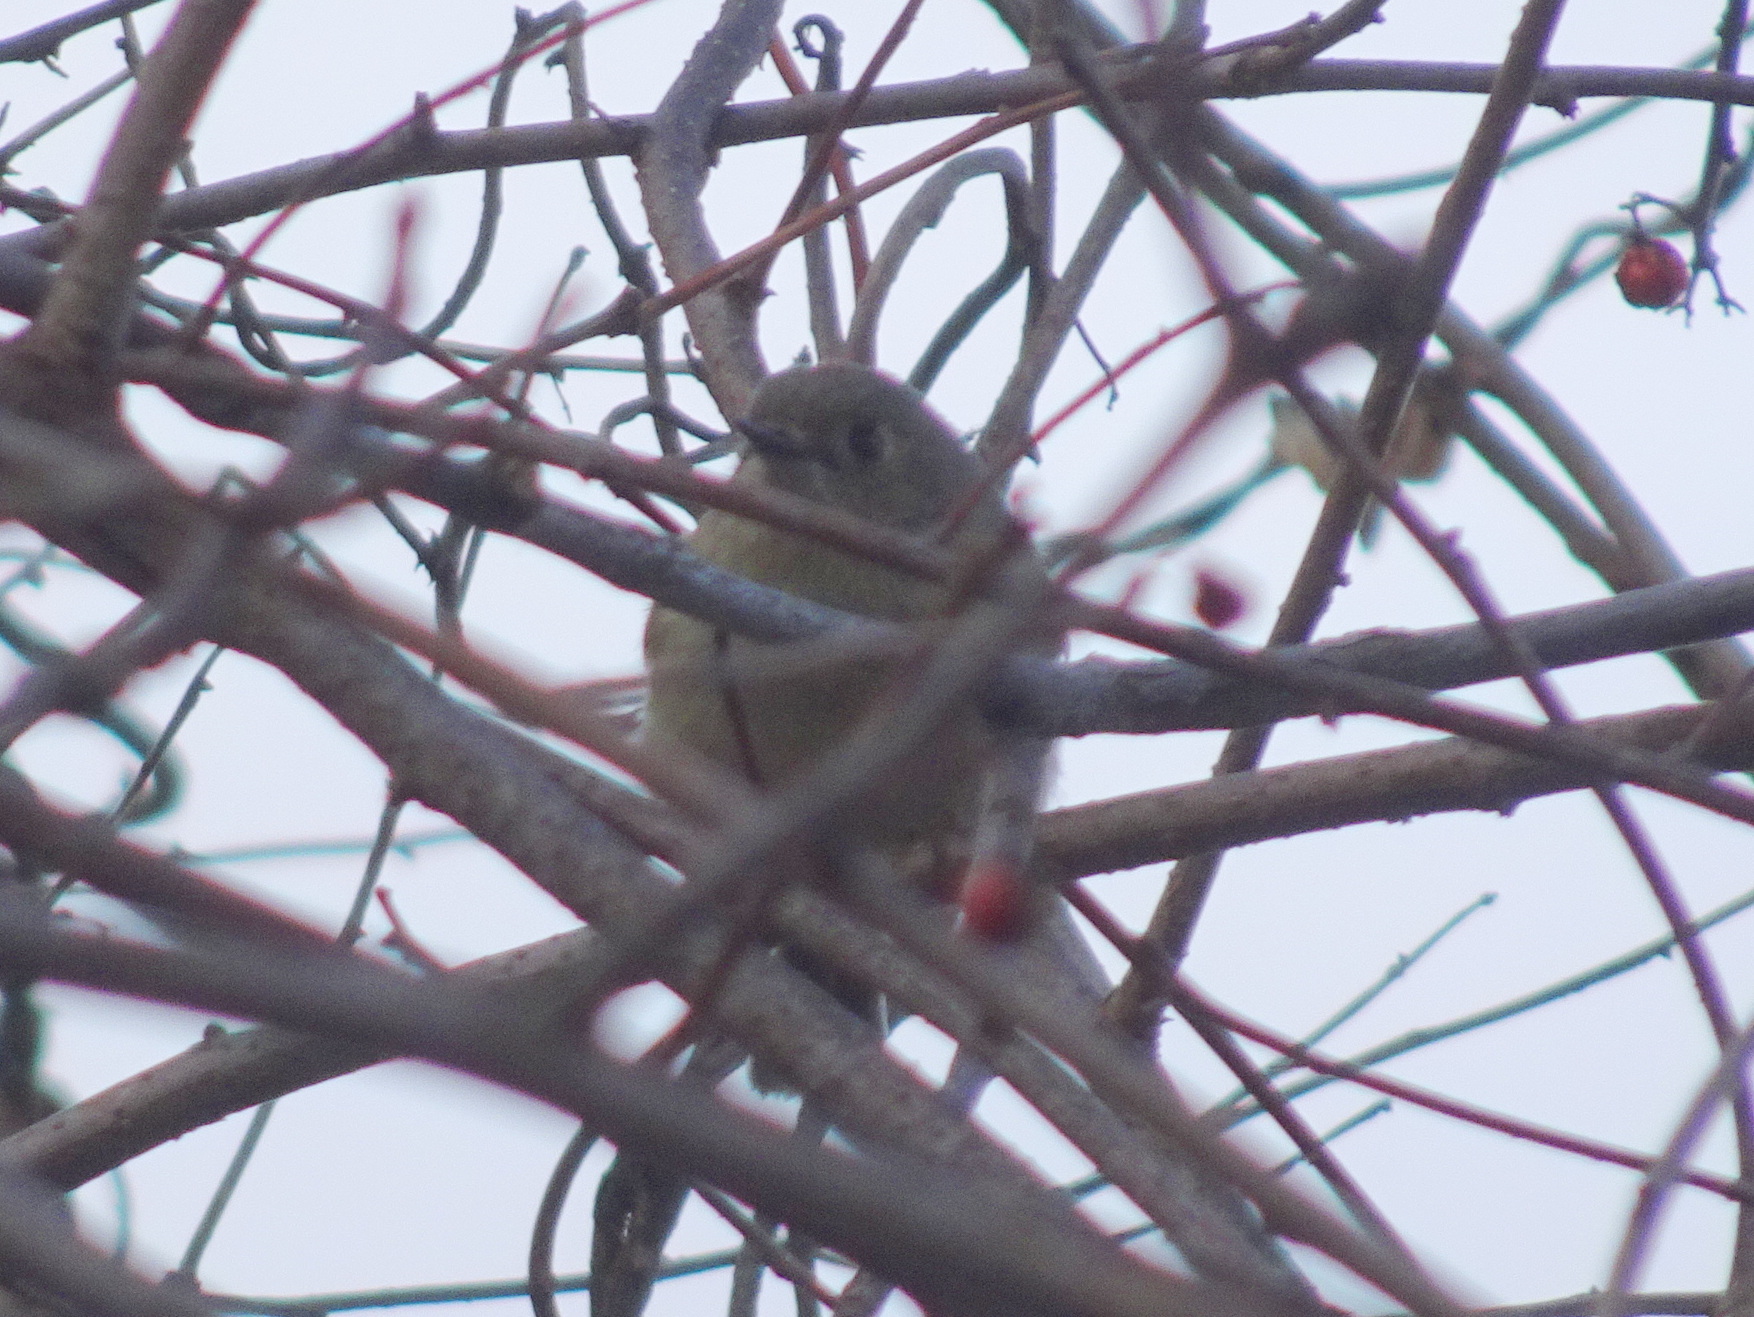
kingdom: Animalia
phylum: Chordata
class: Aves
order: Passeriformes
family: Regulidae
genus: Regulus
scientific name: Regulus calendula
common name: Ruby-crowned kinglet
